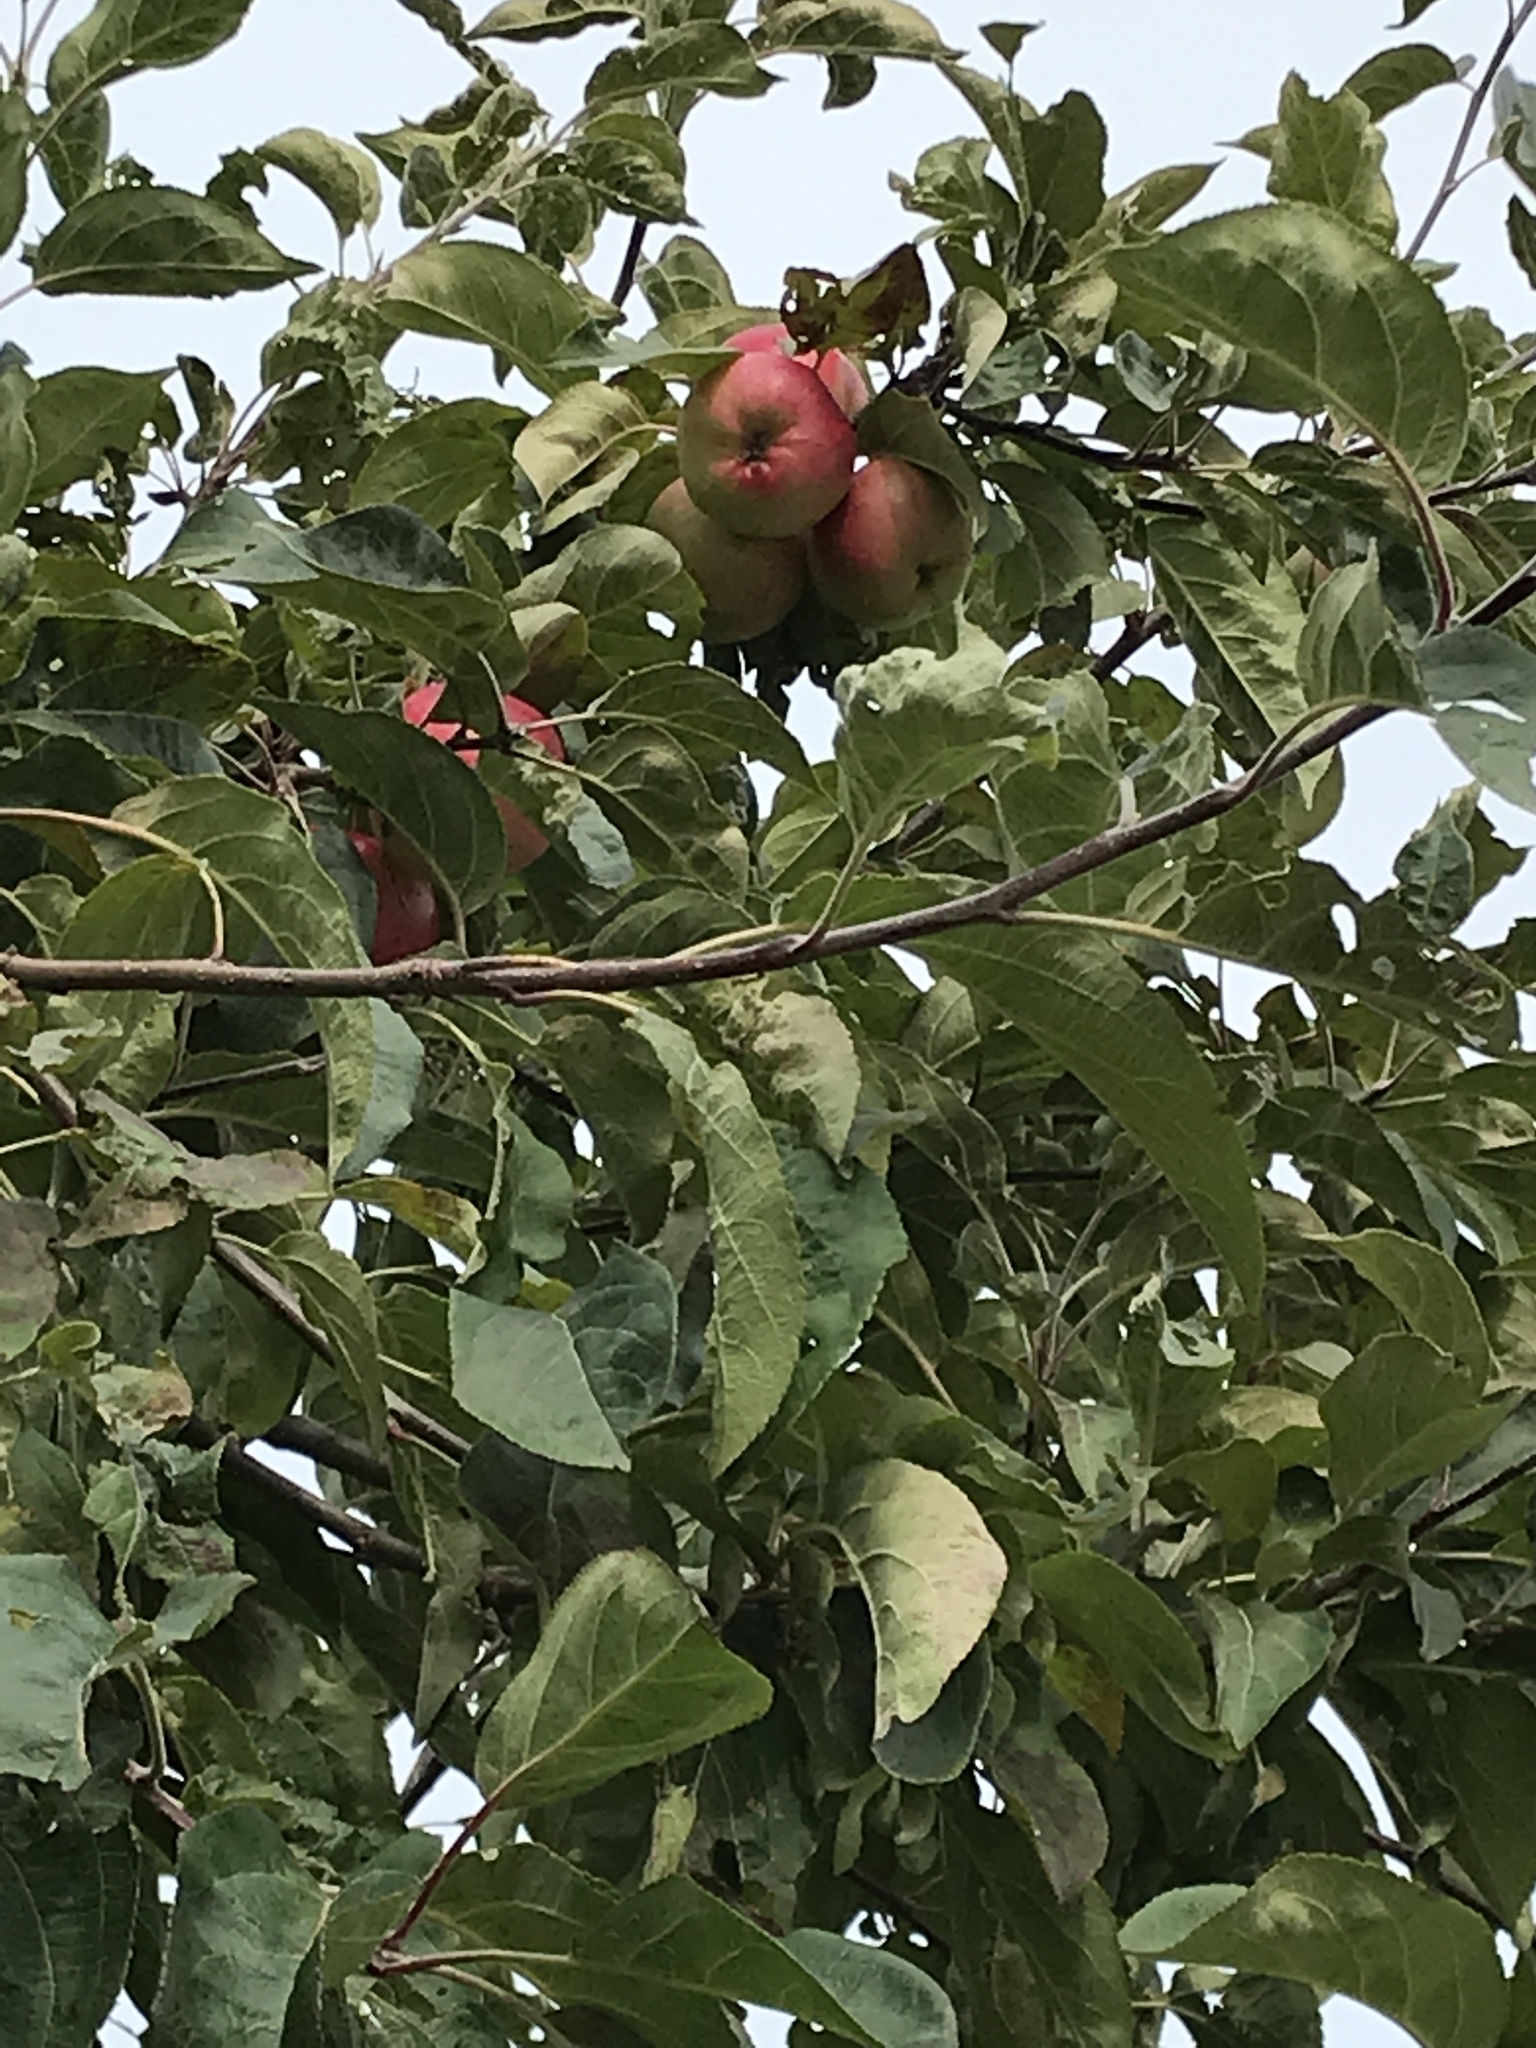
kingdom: Plantae
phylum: Tracheophyta
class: Magnoliopsida
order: Rosales
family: Rosaceae
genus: Malus
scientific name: Malus domestica
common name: Apple
